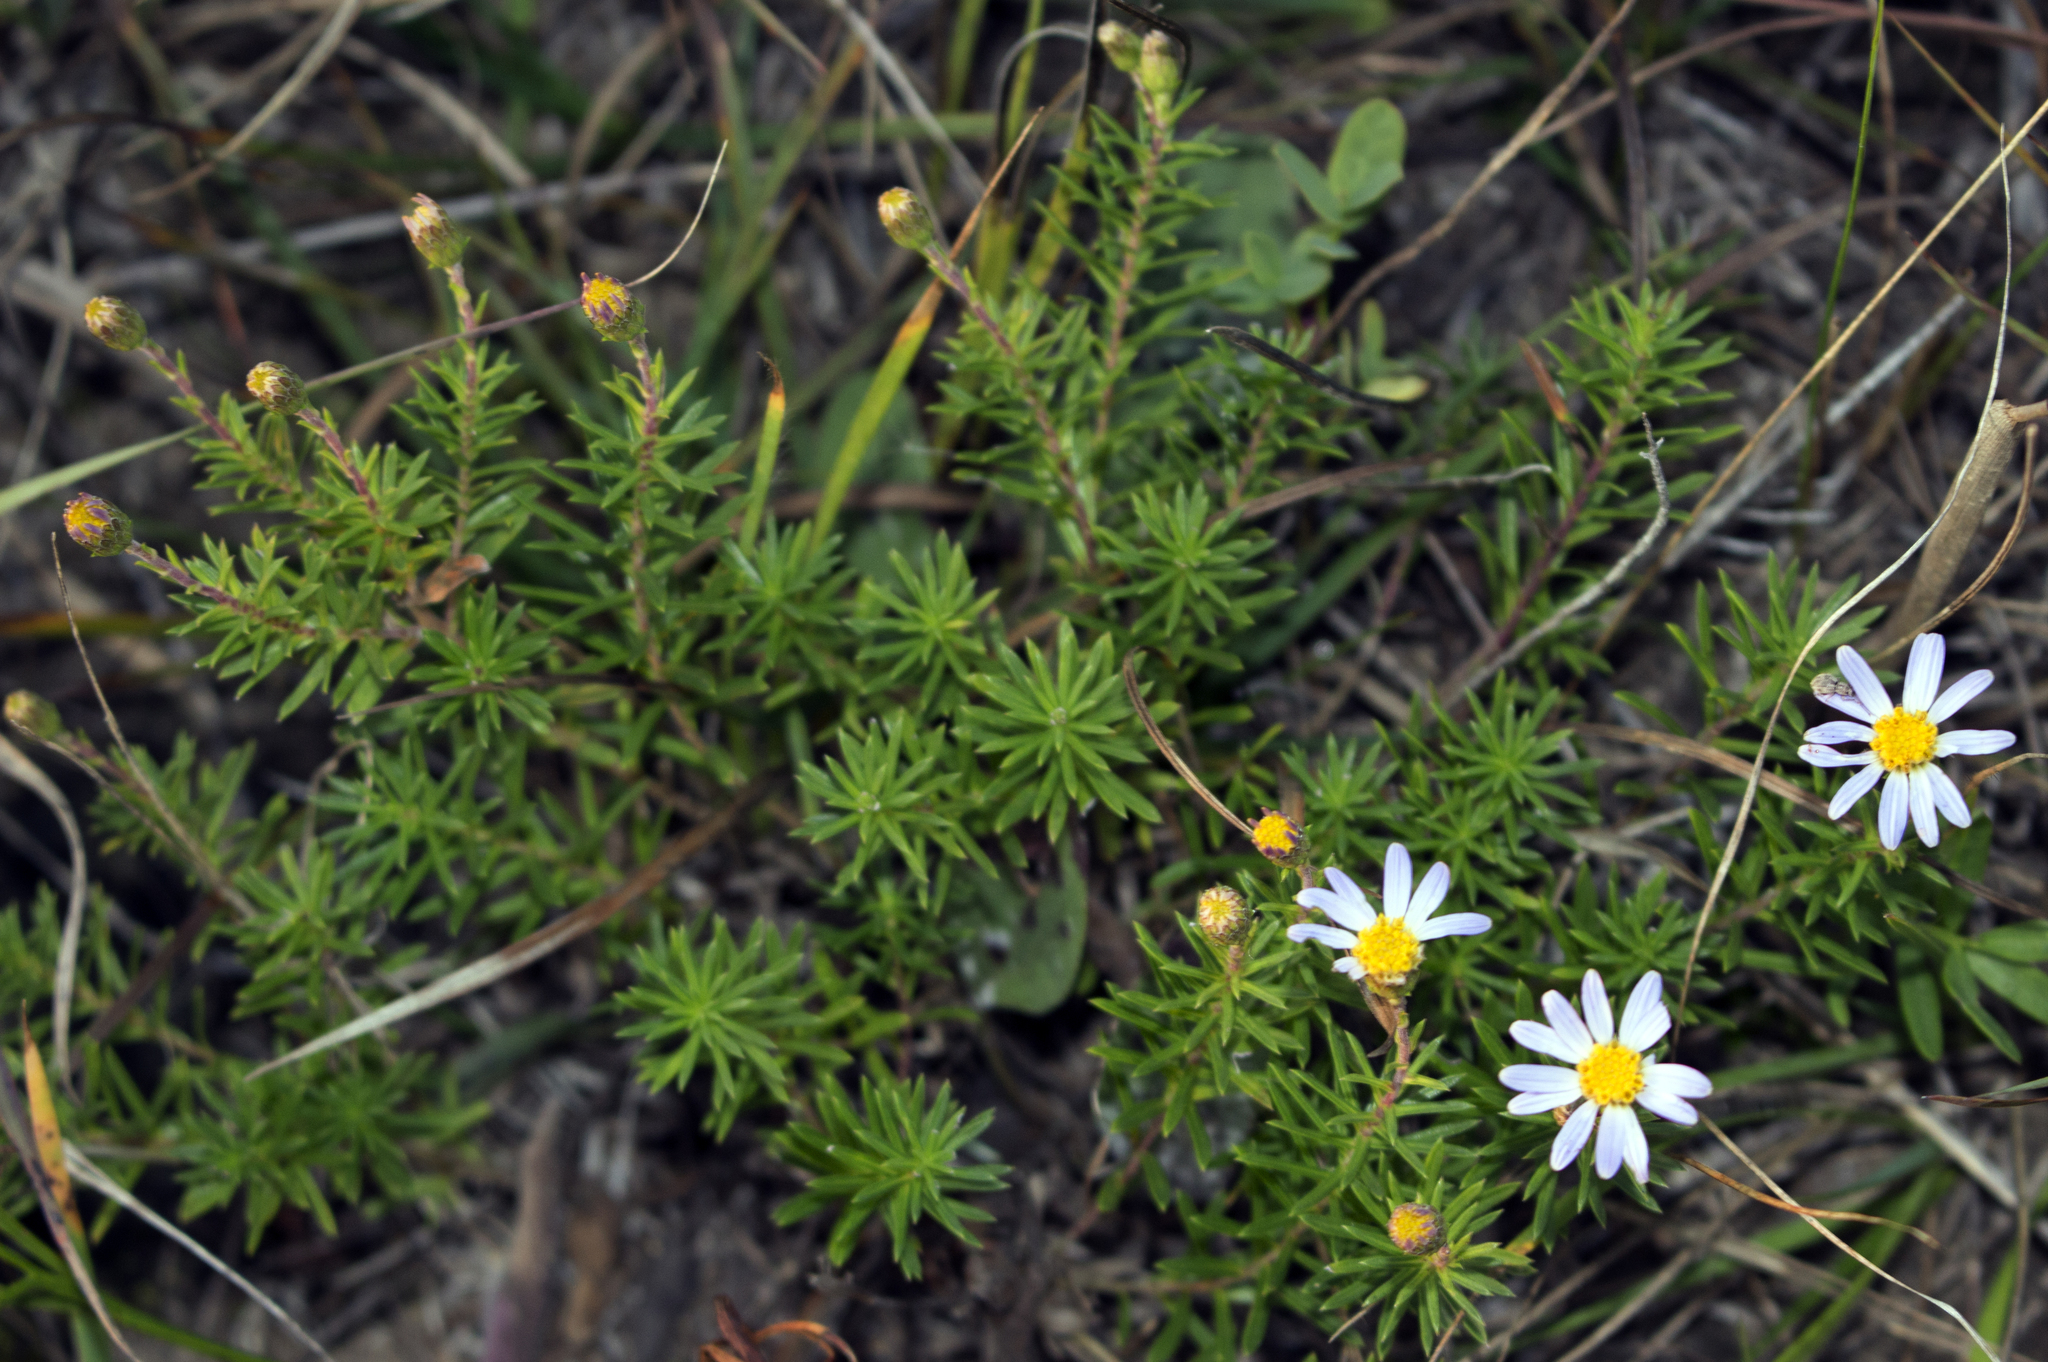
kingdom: Plantae
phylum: Tracheophyta
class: Magnoliopsida
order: Asterales
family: Asteraceae
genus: Ionactis
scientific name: Ionactis linariifolia
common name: Flax-leaf aster
